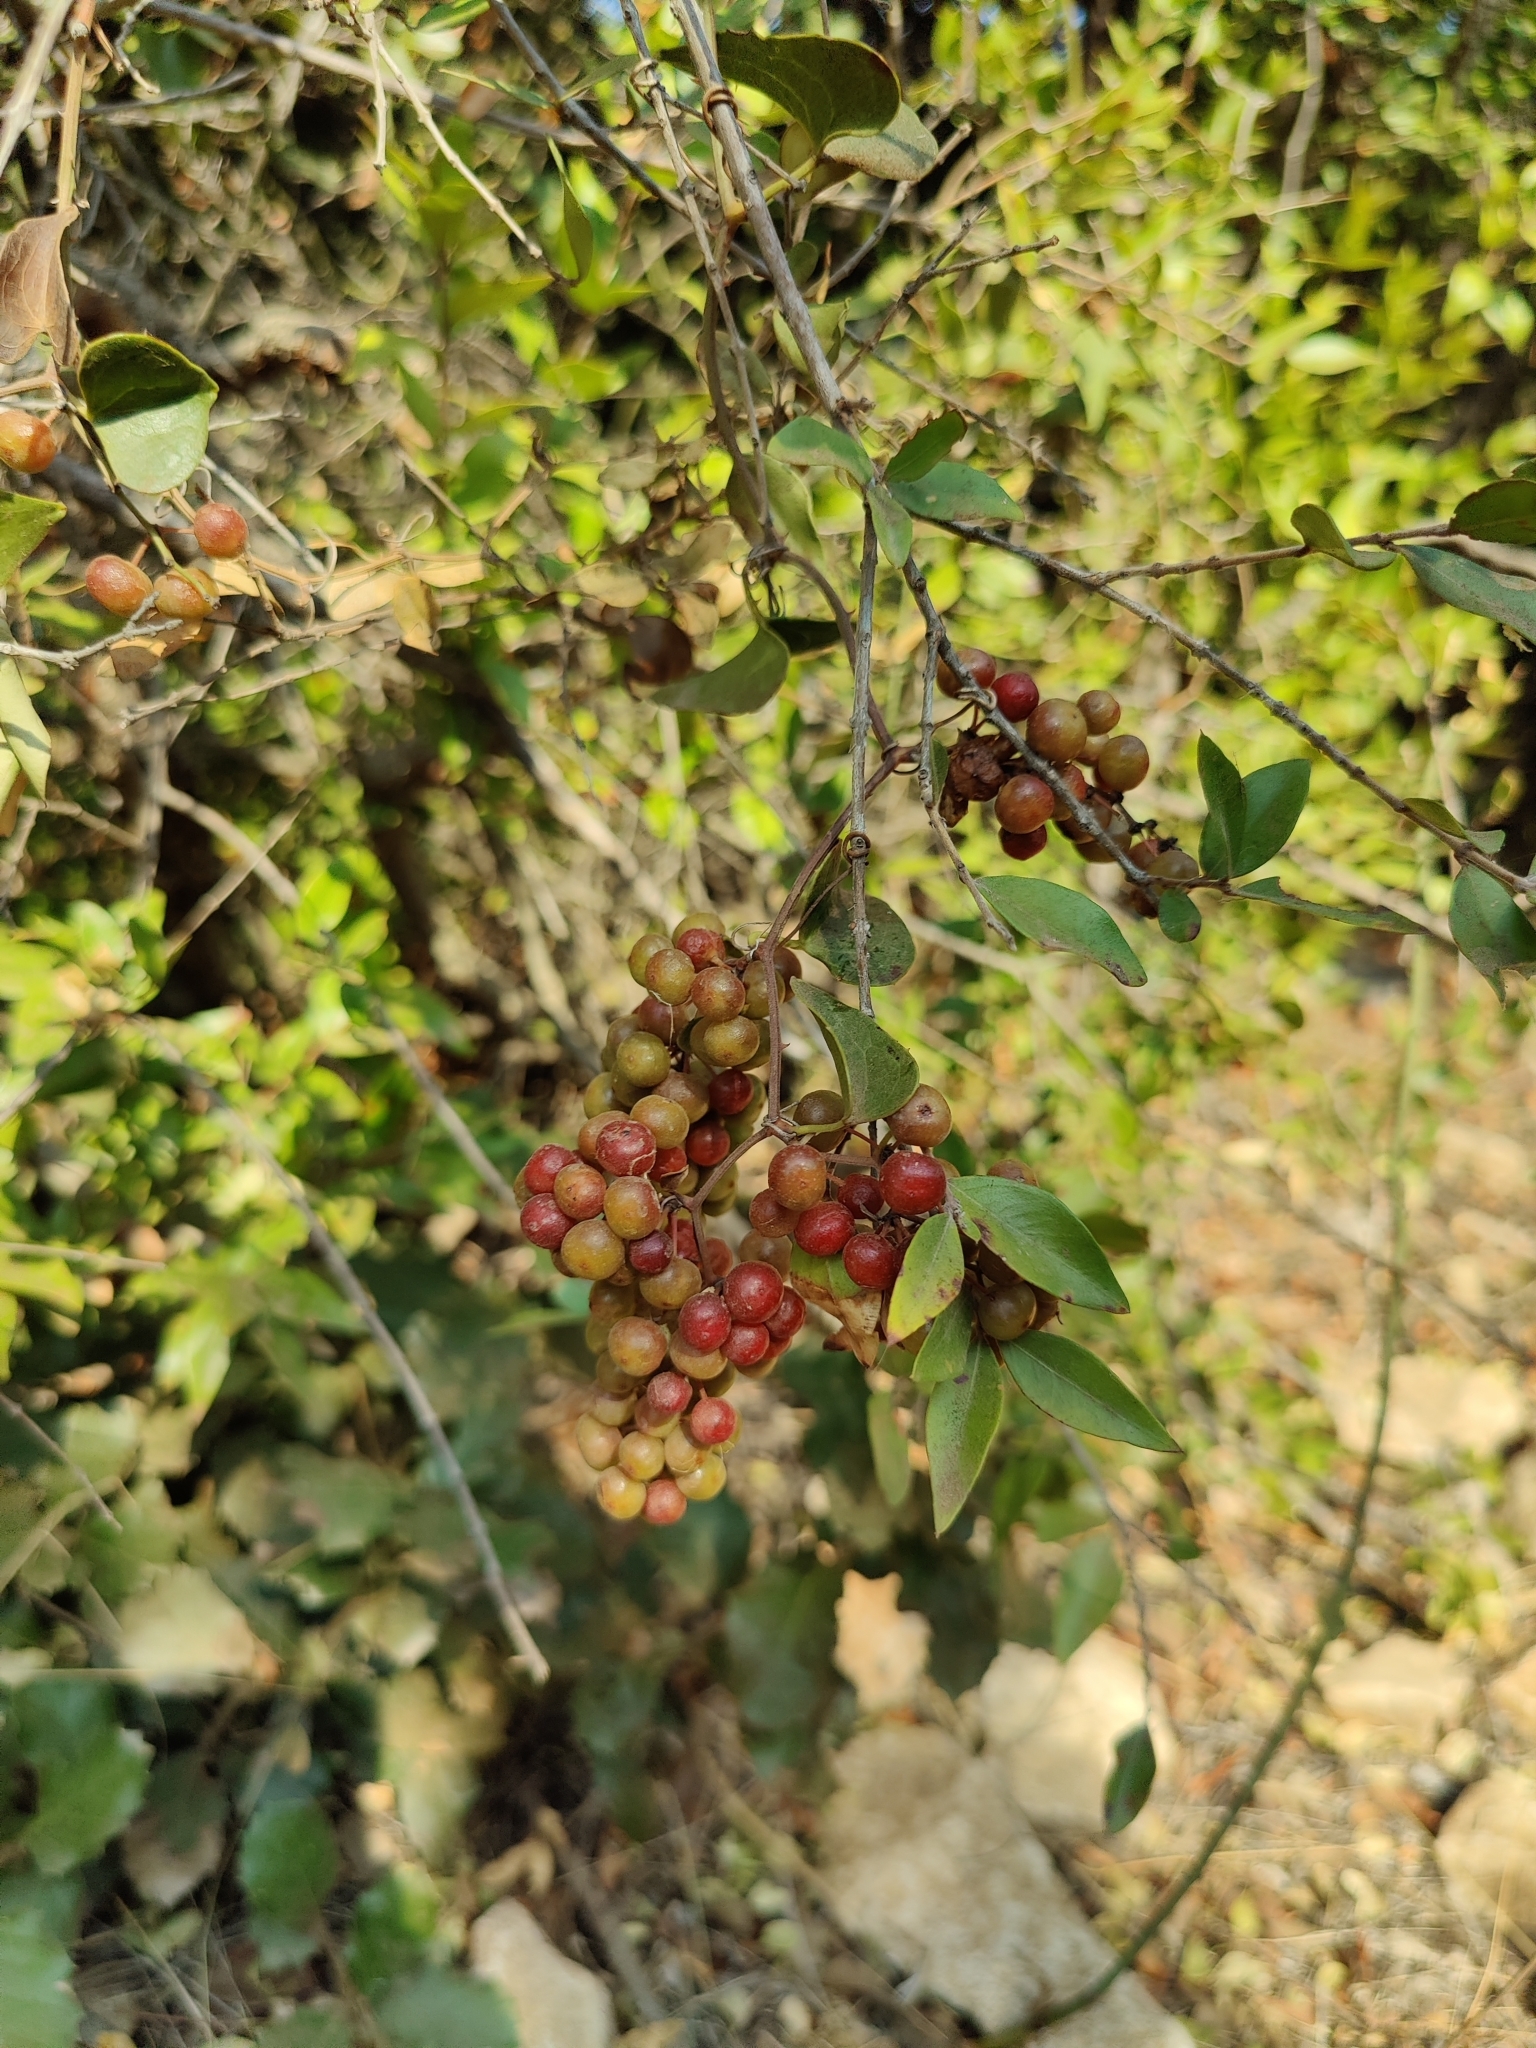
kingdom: Plantae
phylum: Tracheophyta
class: Magnoliopsida
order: Rosales
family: Rhamnaceae
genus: Rhamnus
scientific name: Rhamnus alaternus
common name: Mediterranean buckthorn
